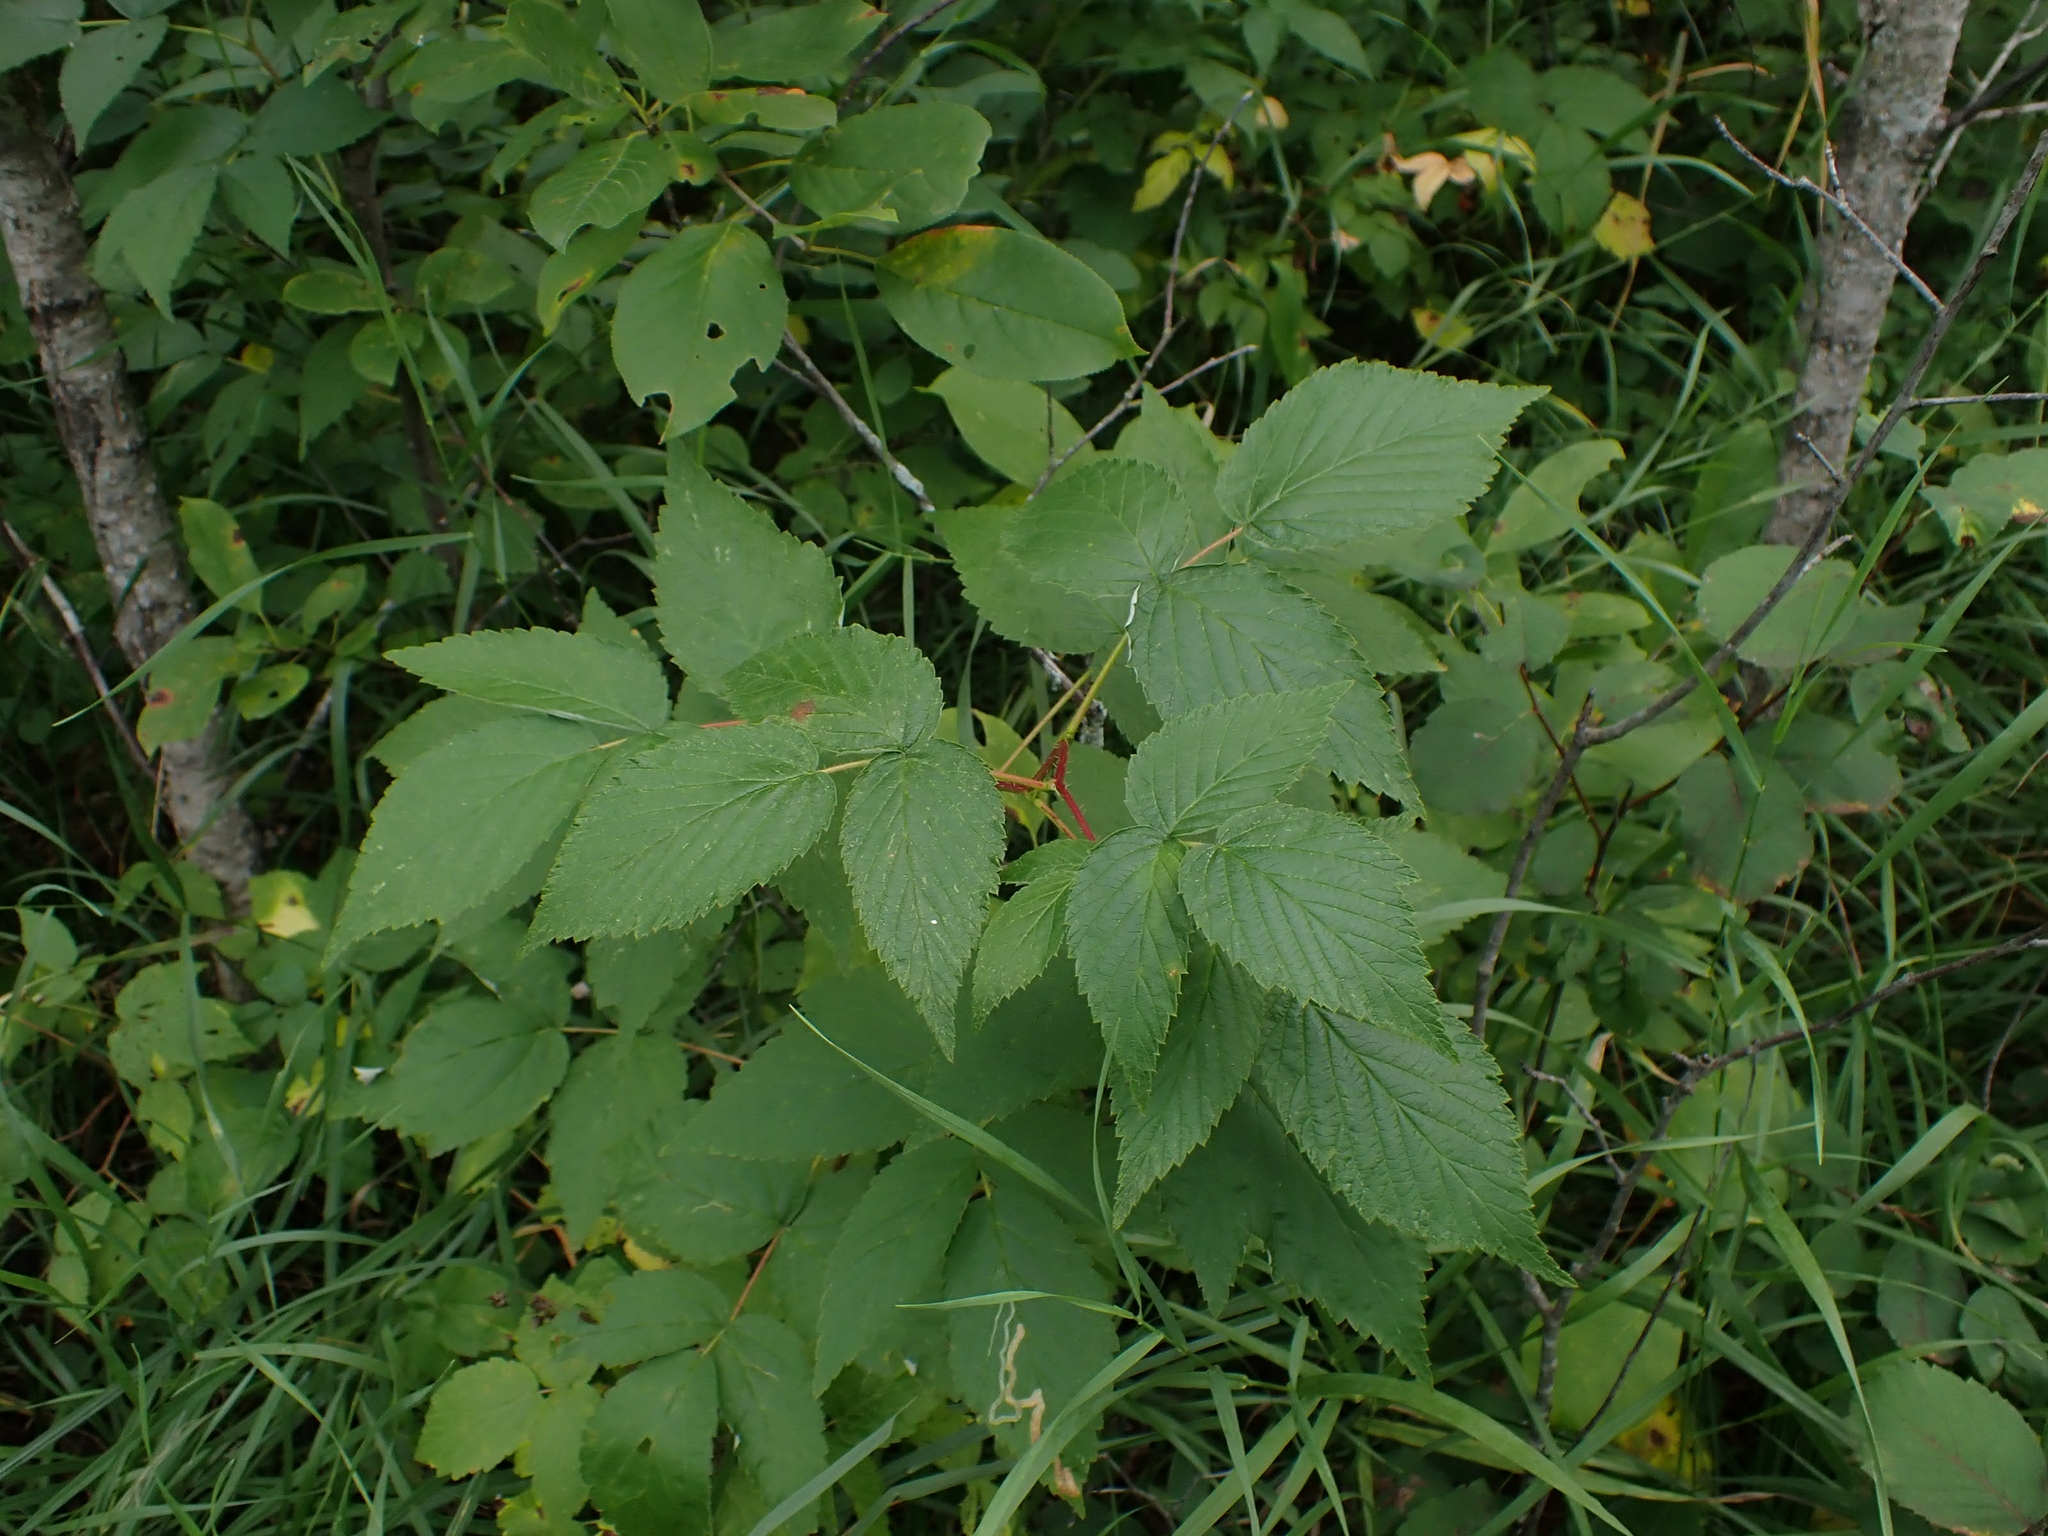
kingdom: Plantae
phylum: Tracheophyta
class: Magnoliopsida
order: Rosales
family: Rosaceae
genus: Rubus
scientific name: Rubus idaeus
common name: Raspberry
